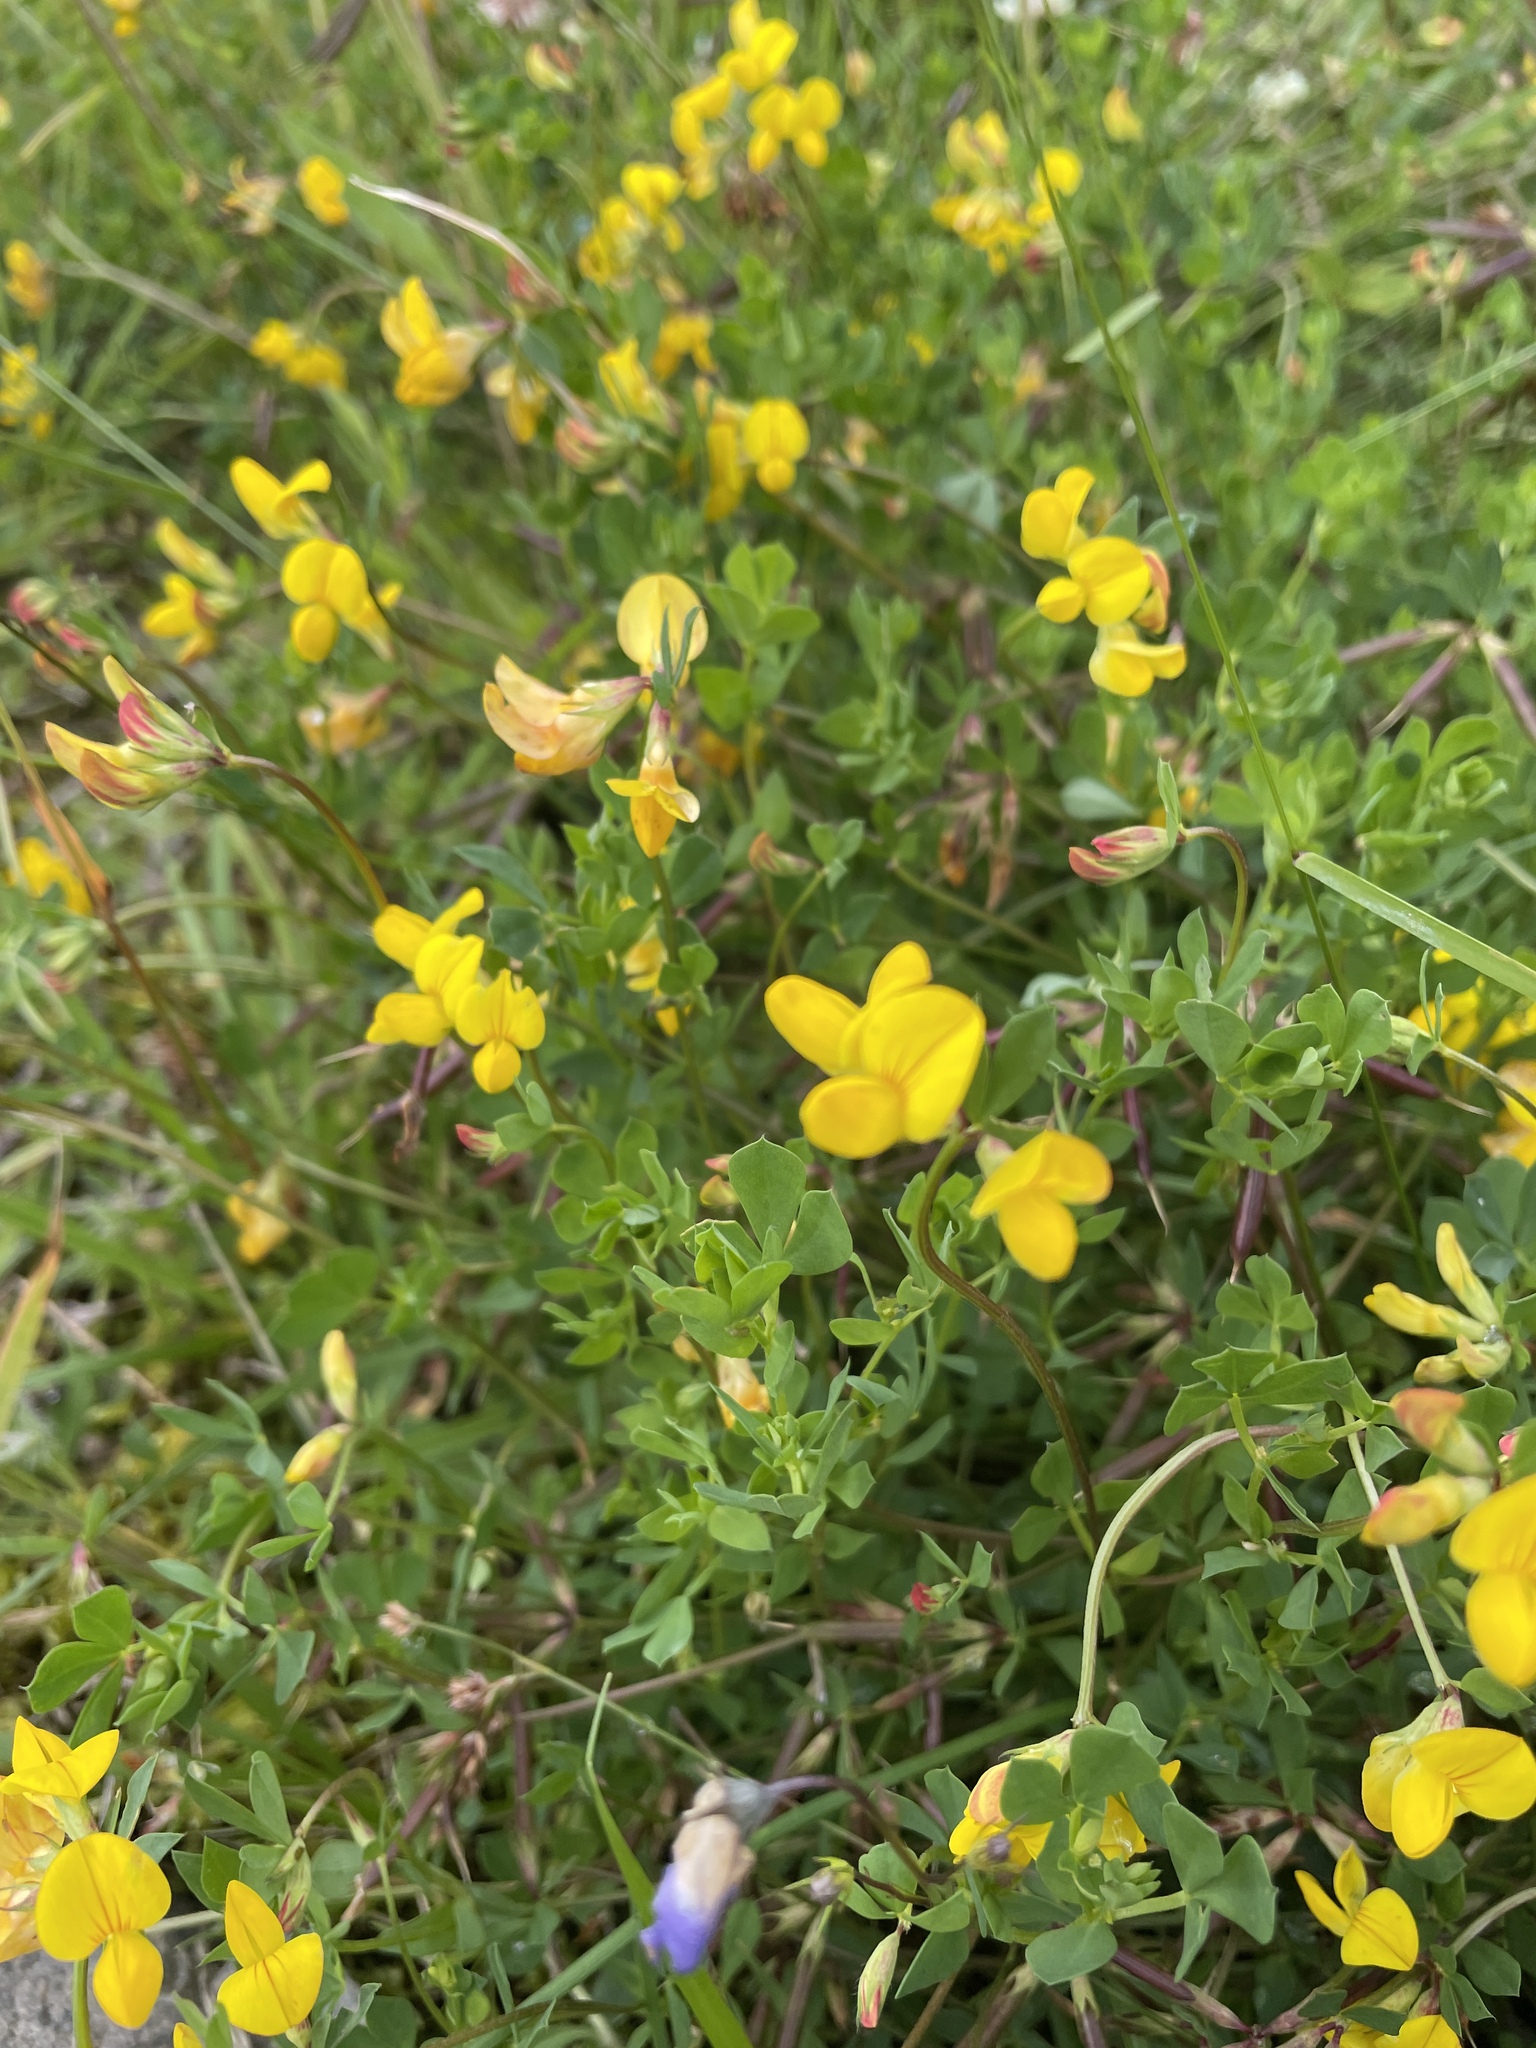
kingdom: Plantae
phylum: Tracheophyta
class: Magnoliopsida
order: Fabales
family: Fabaceae
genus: Lotus
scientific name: Lotus corniculatus
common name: Common bird's-foot-trefoil
